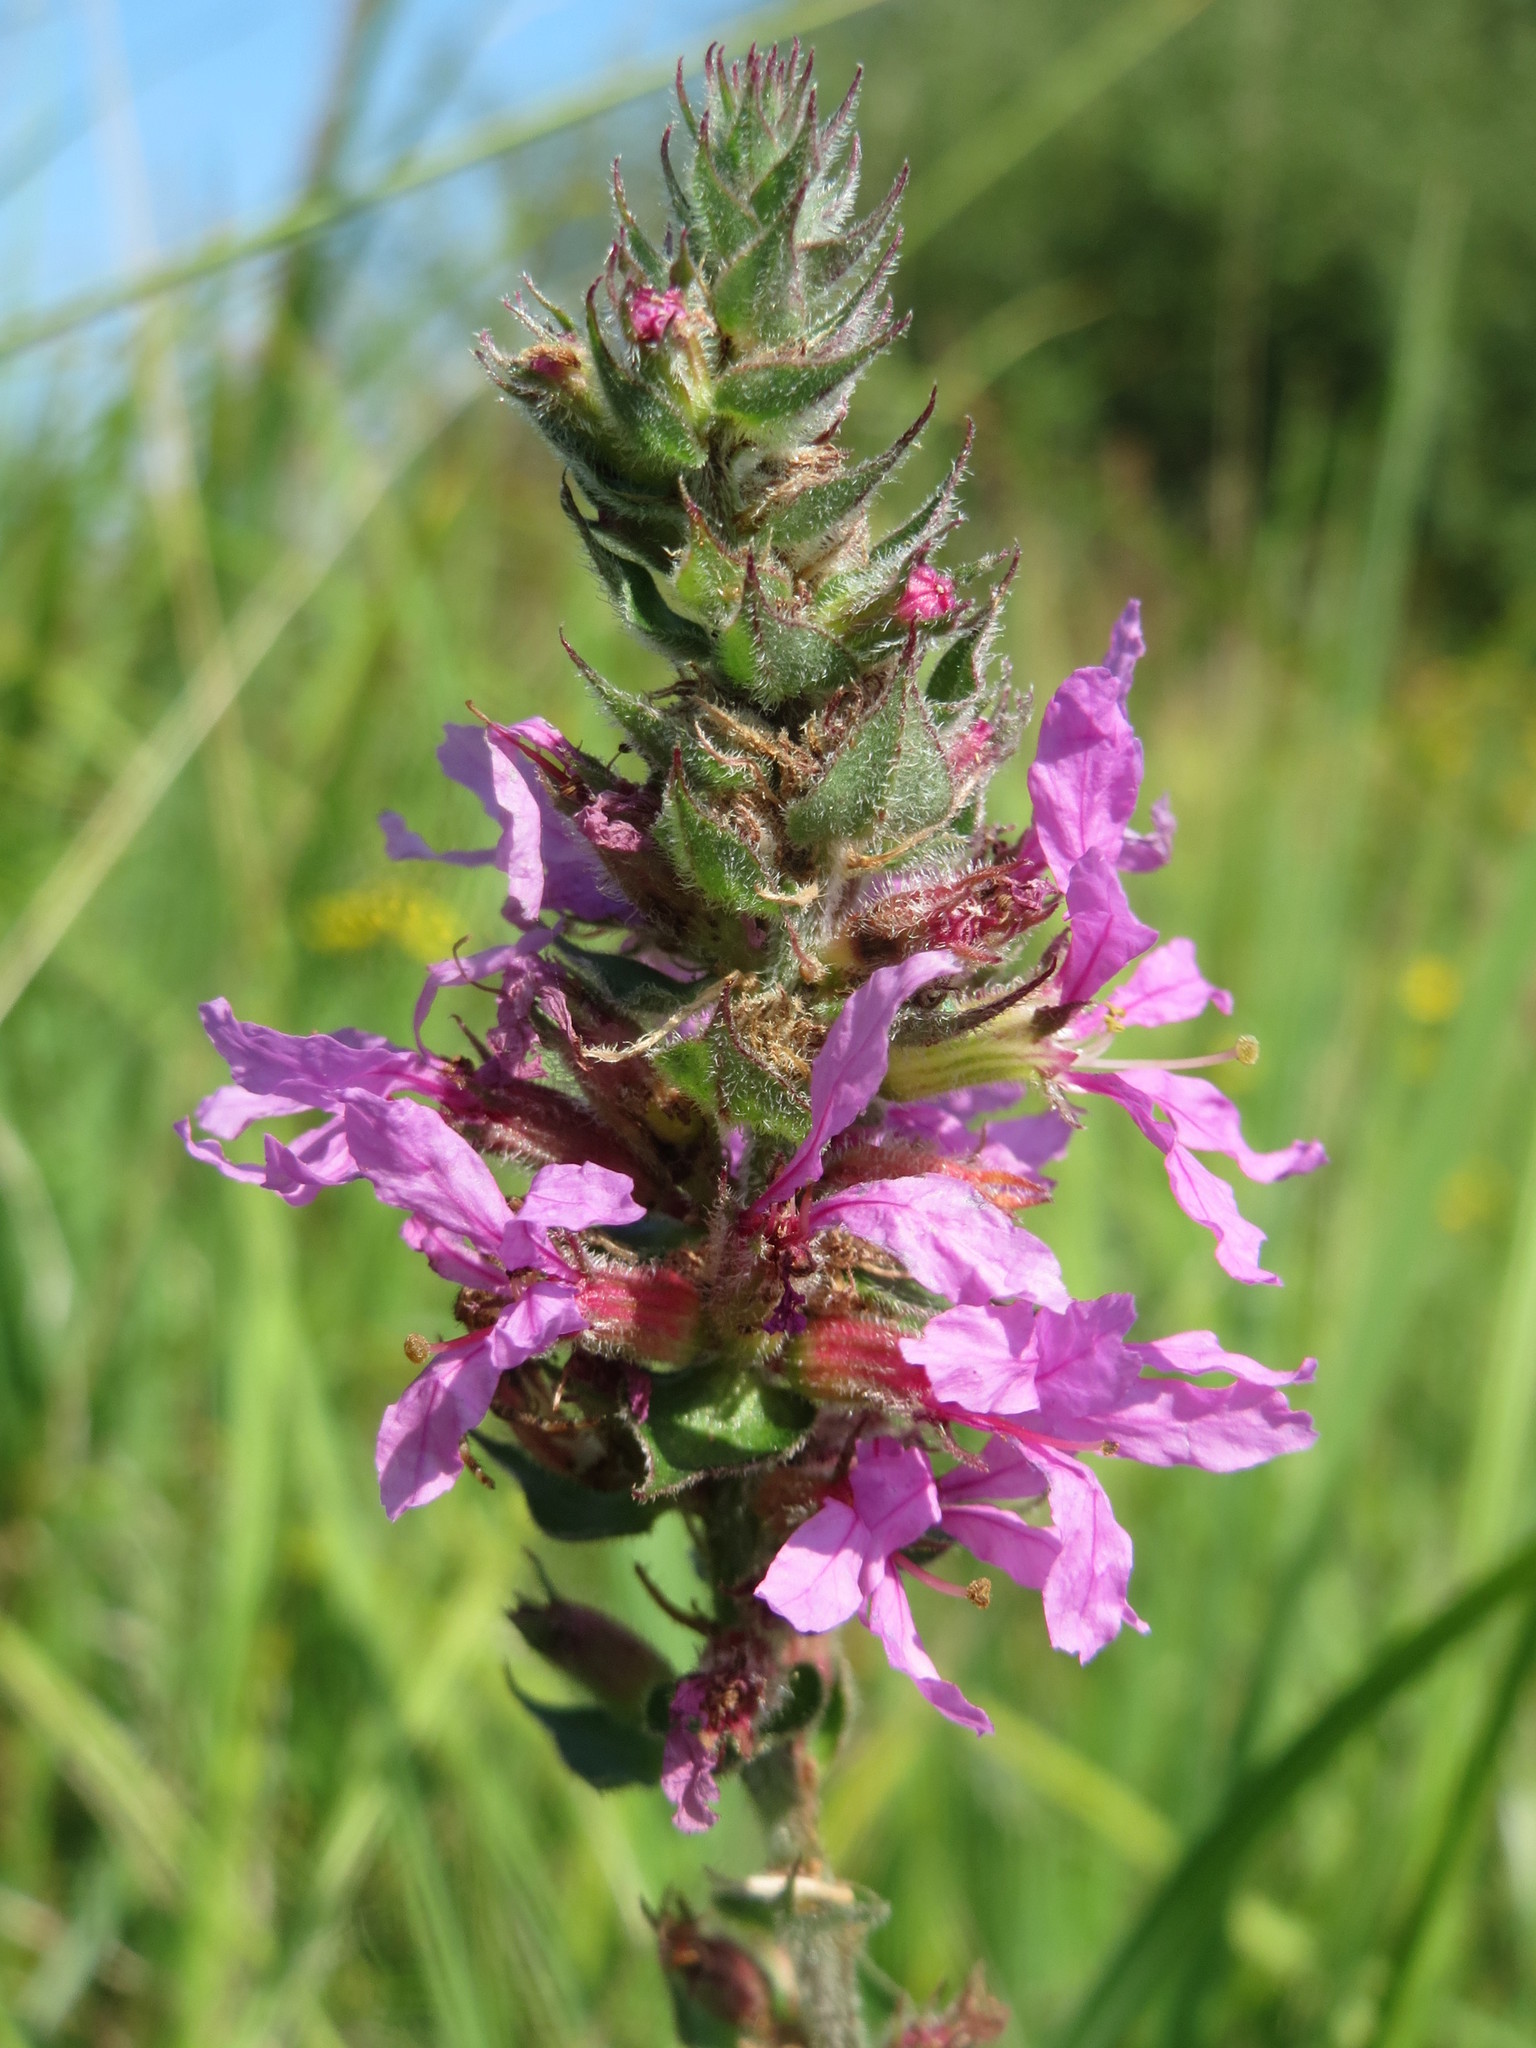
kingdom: Plantae
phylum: Tracheophyta
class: Magnoliopsida
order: Myrtales
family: Lythraceae
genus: Lythrum
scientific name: Lythrum salicaria
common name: Purple loosestrife
